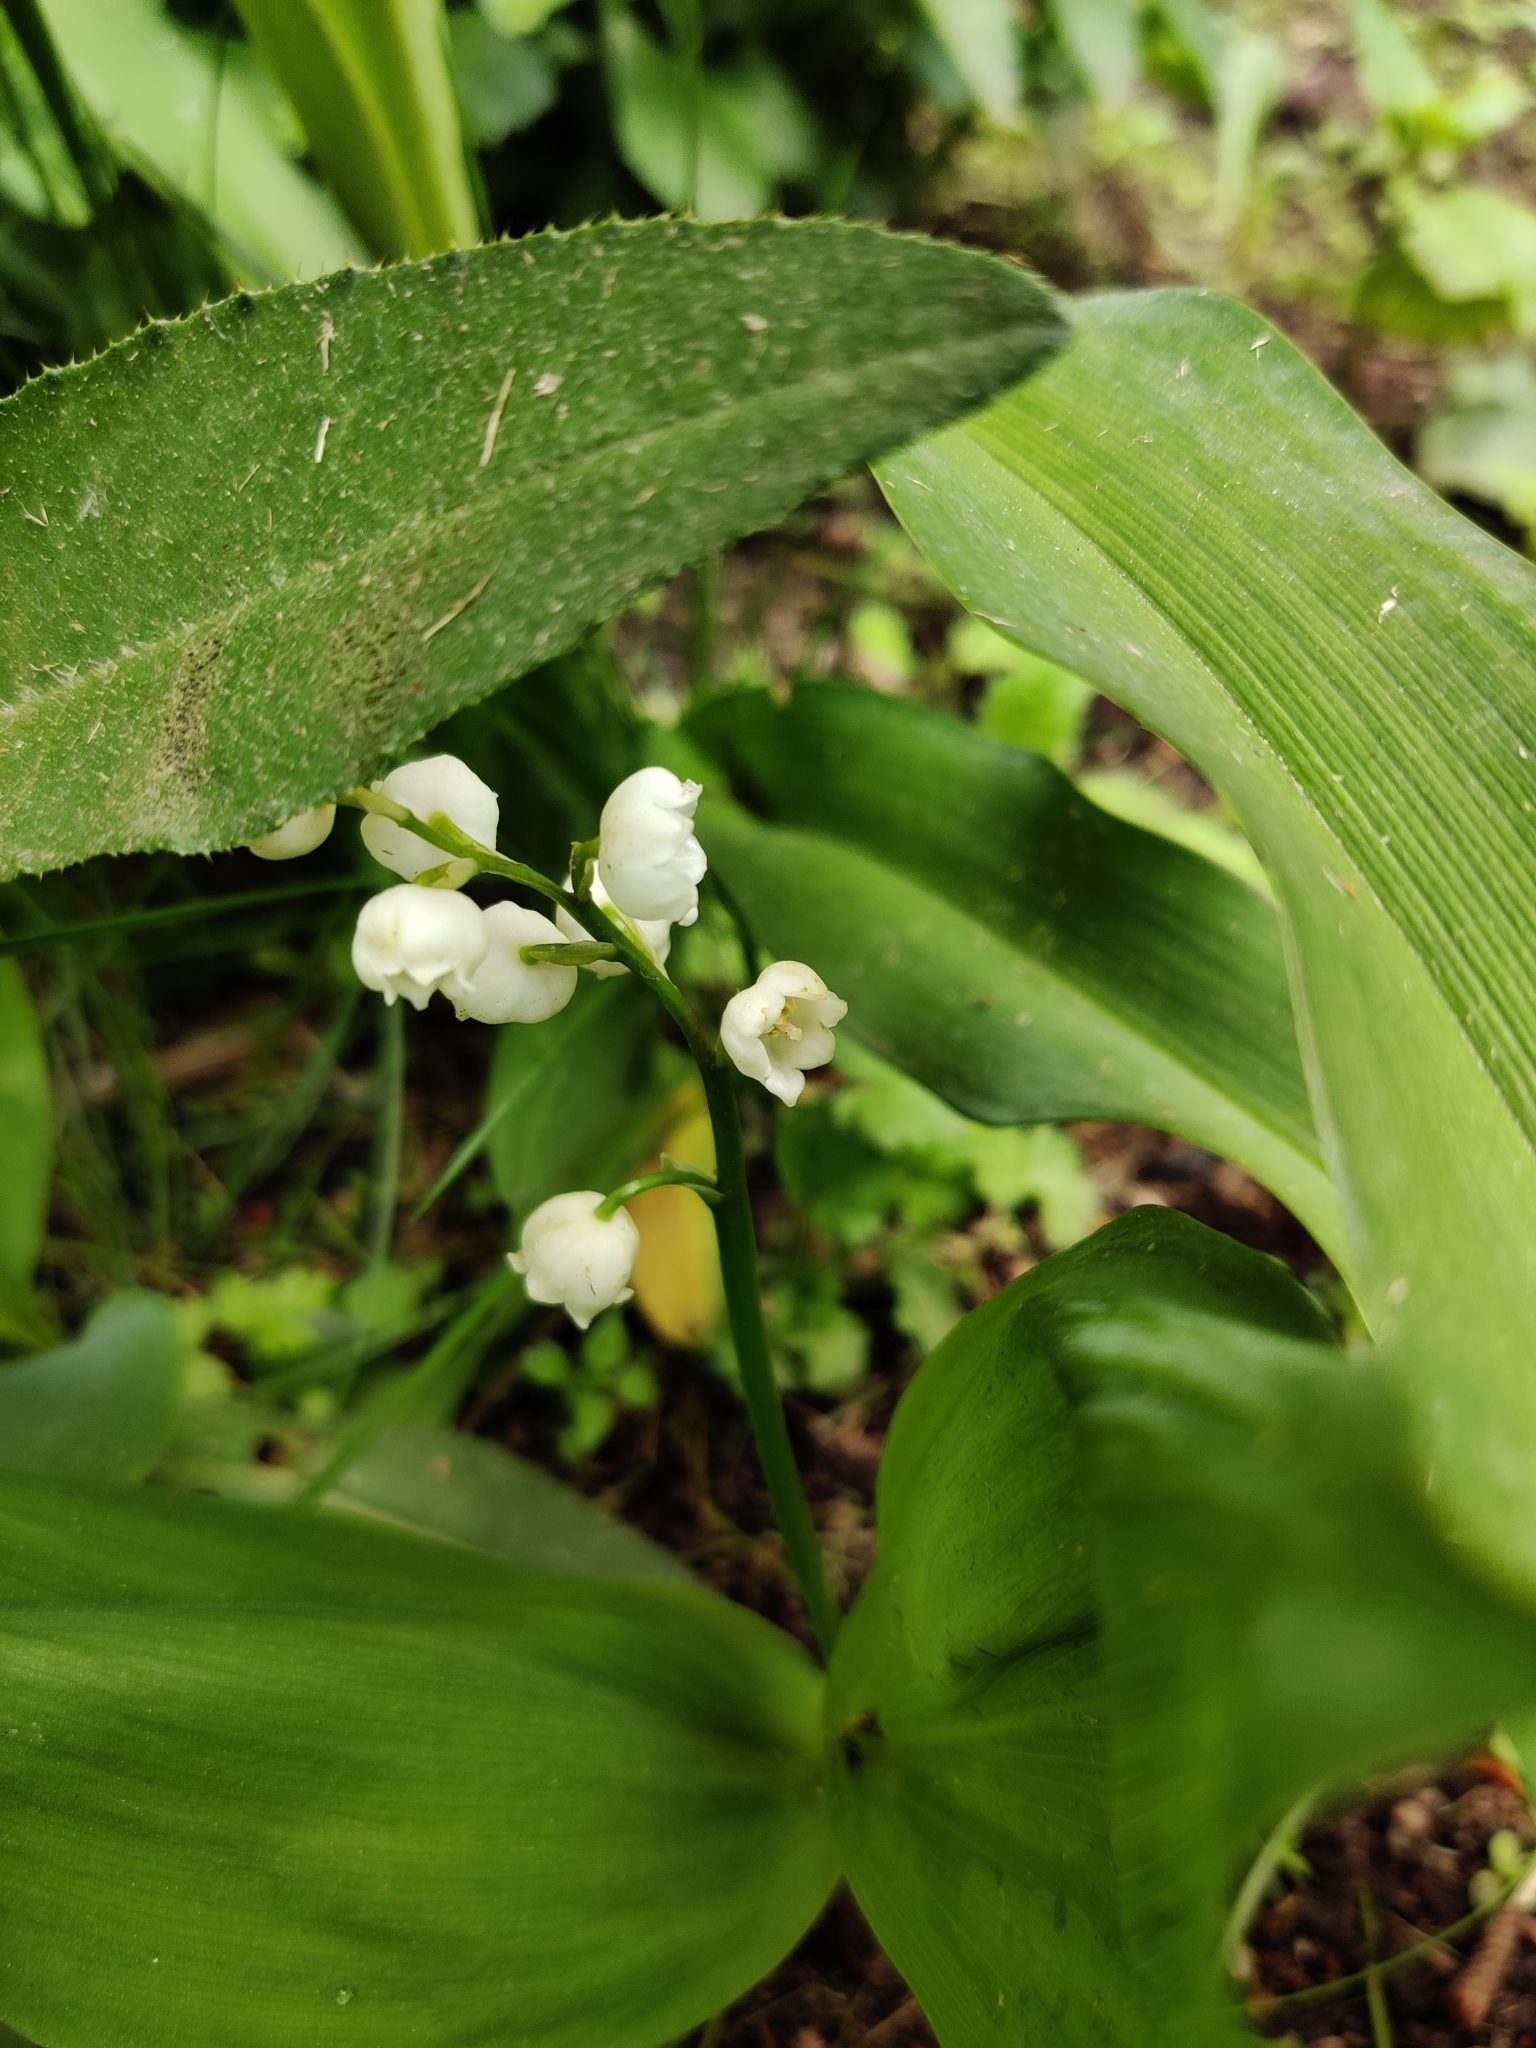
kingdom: Plantae
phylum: Tracheophyta
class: Liliopsida
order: Asparagales
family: Asparagaceae
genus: Convallaria
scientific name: Convallaria majalis
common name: Lily-of-the-valley
